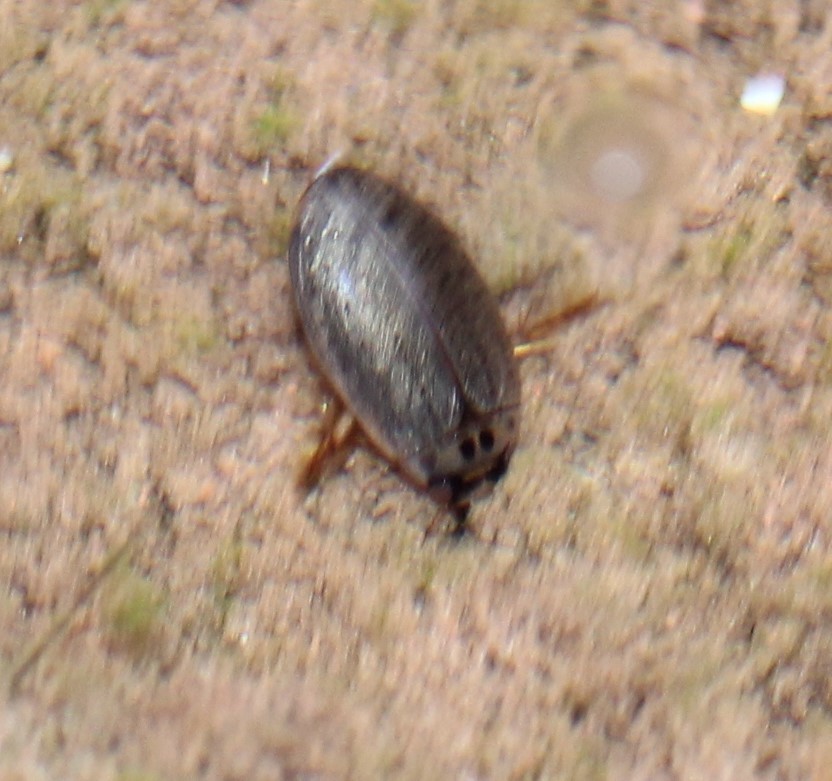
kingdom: Animalia
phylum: Arthropoda
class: Insecta
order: Coleoptera
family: Dytiscidae
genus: Rhantus
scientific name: Rhantus gutticollis
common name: Predaceous diving beetle
